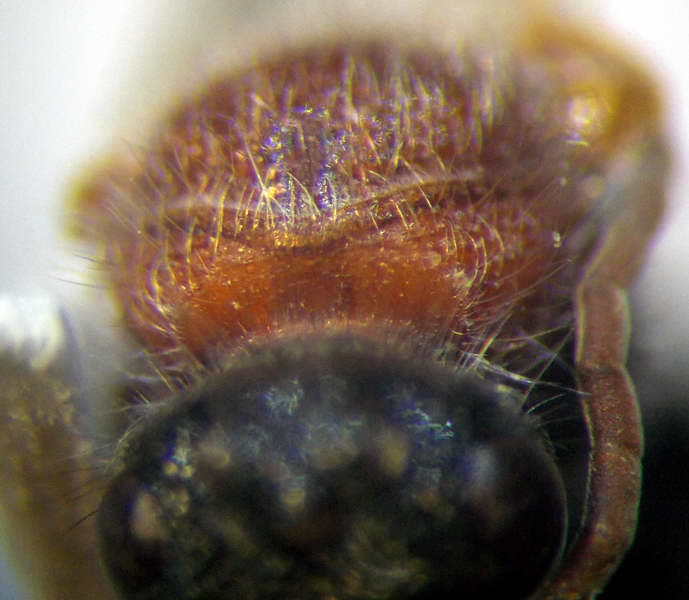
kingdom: Animalia
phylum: Arthropoda
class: Insecta
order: Hymenoptera
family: Mutillidae
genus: Smicromyrme
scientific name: Smicromyrme rufipes
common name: Small velvet ant
